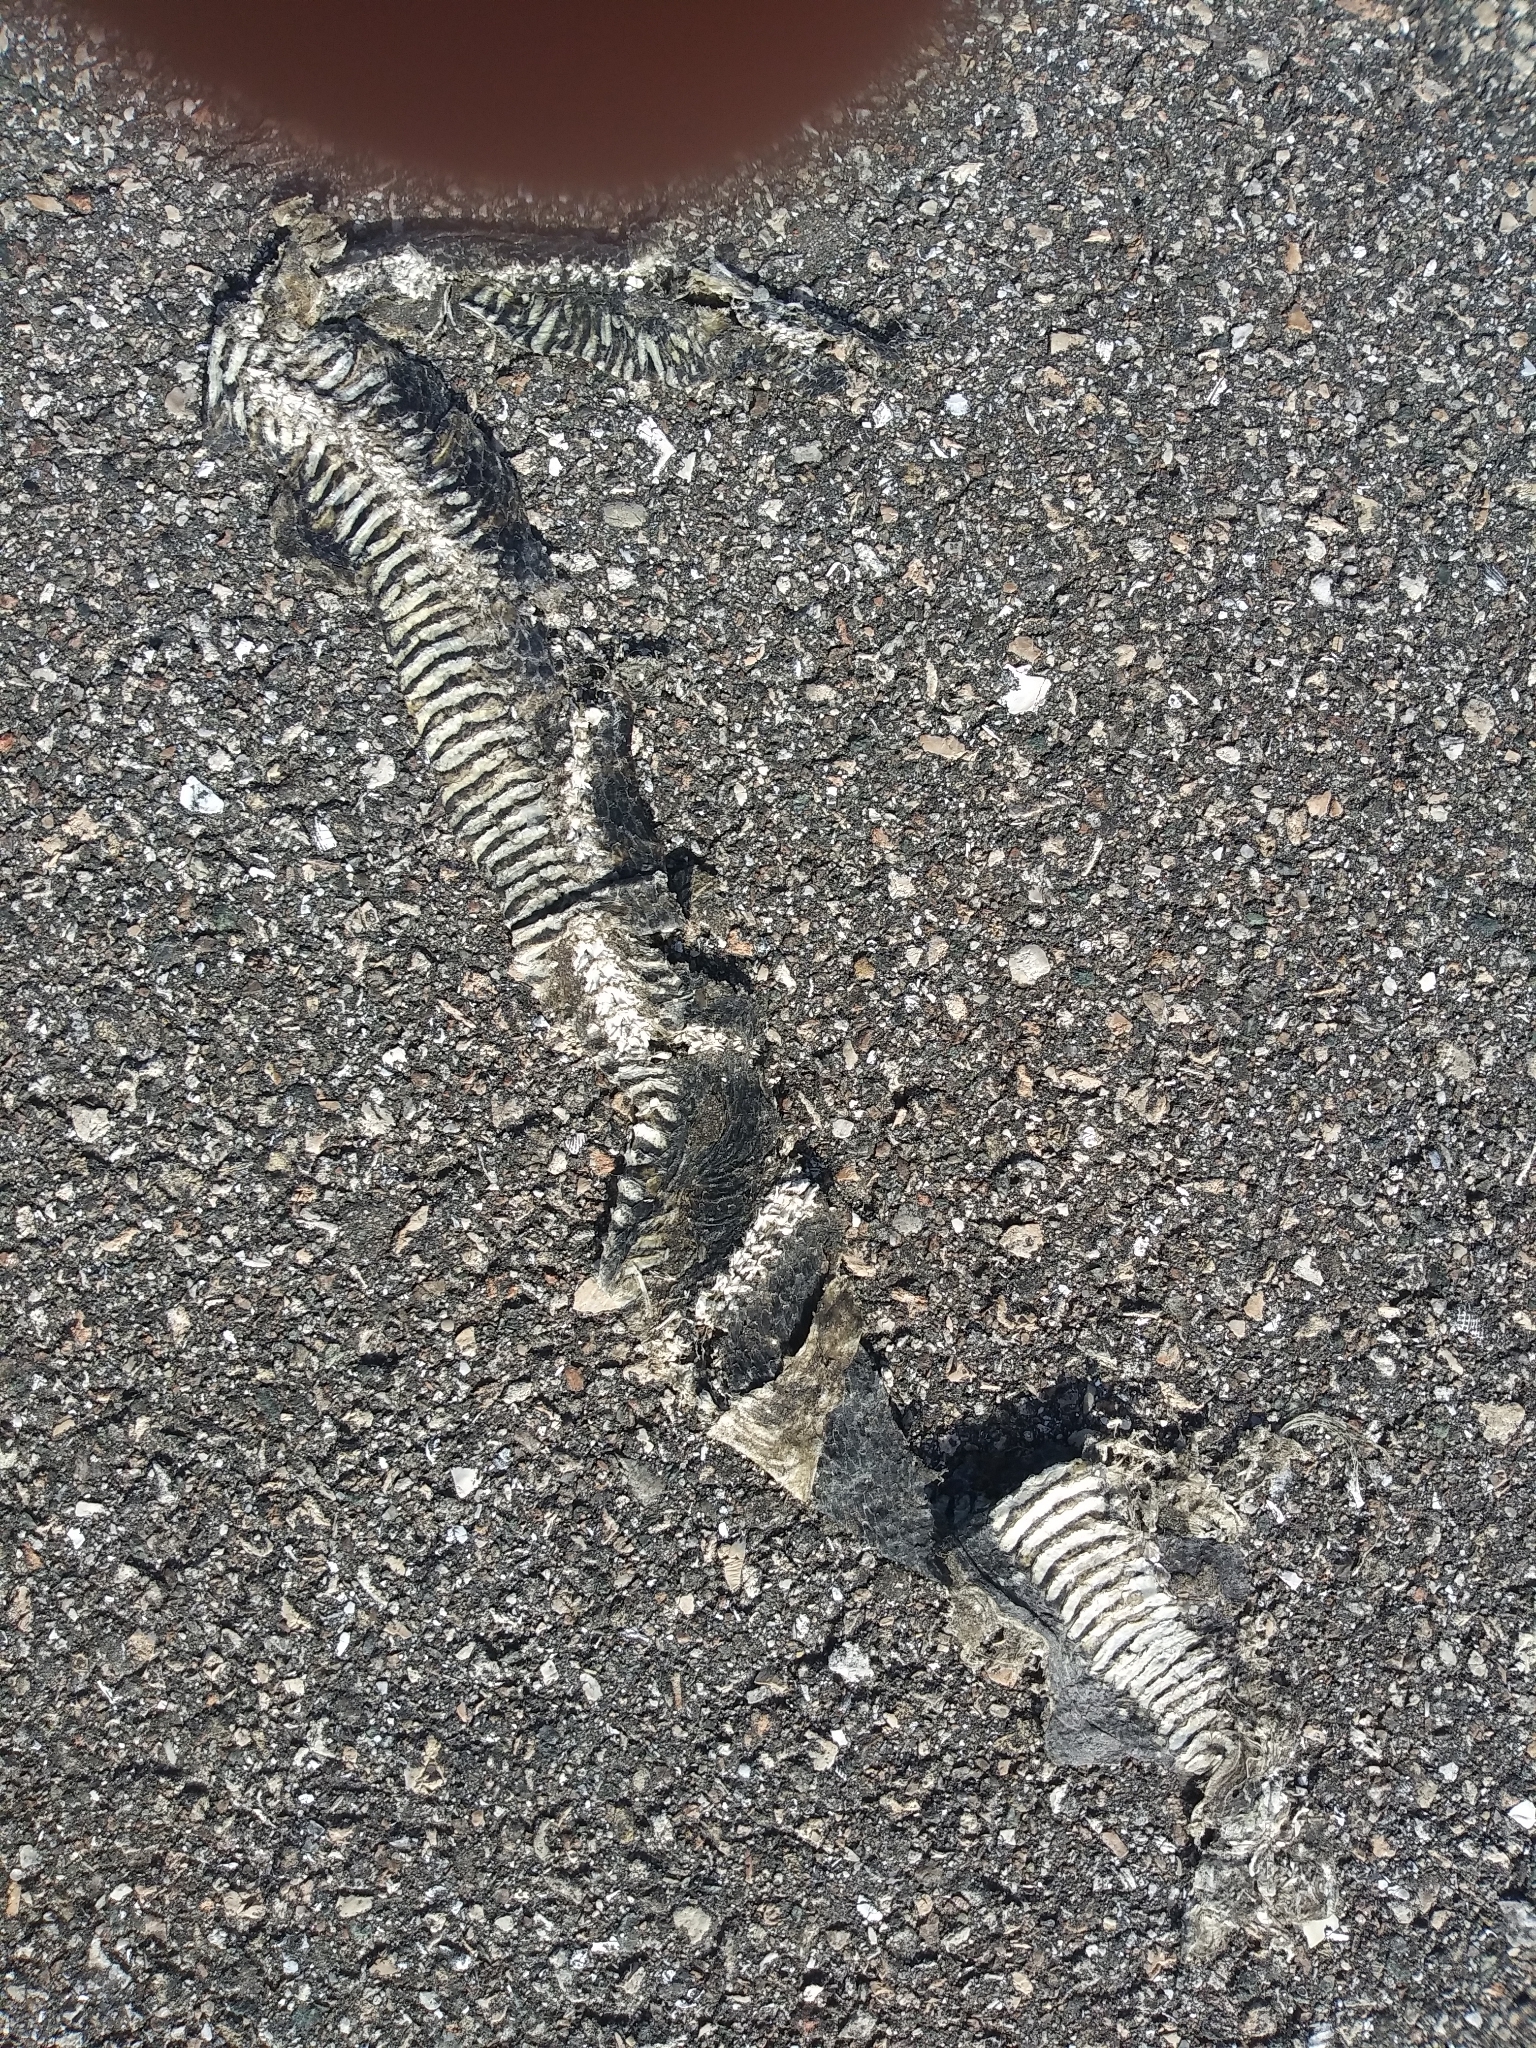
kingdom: Animalia
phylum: Chordata
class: Squamata
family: Colubridae
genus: Nerodia
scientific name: Nerodia fasciata
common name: Southern water snake
